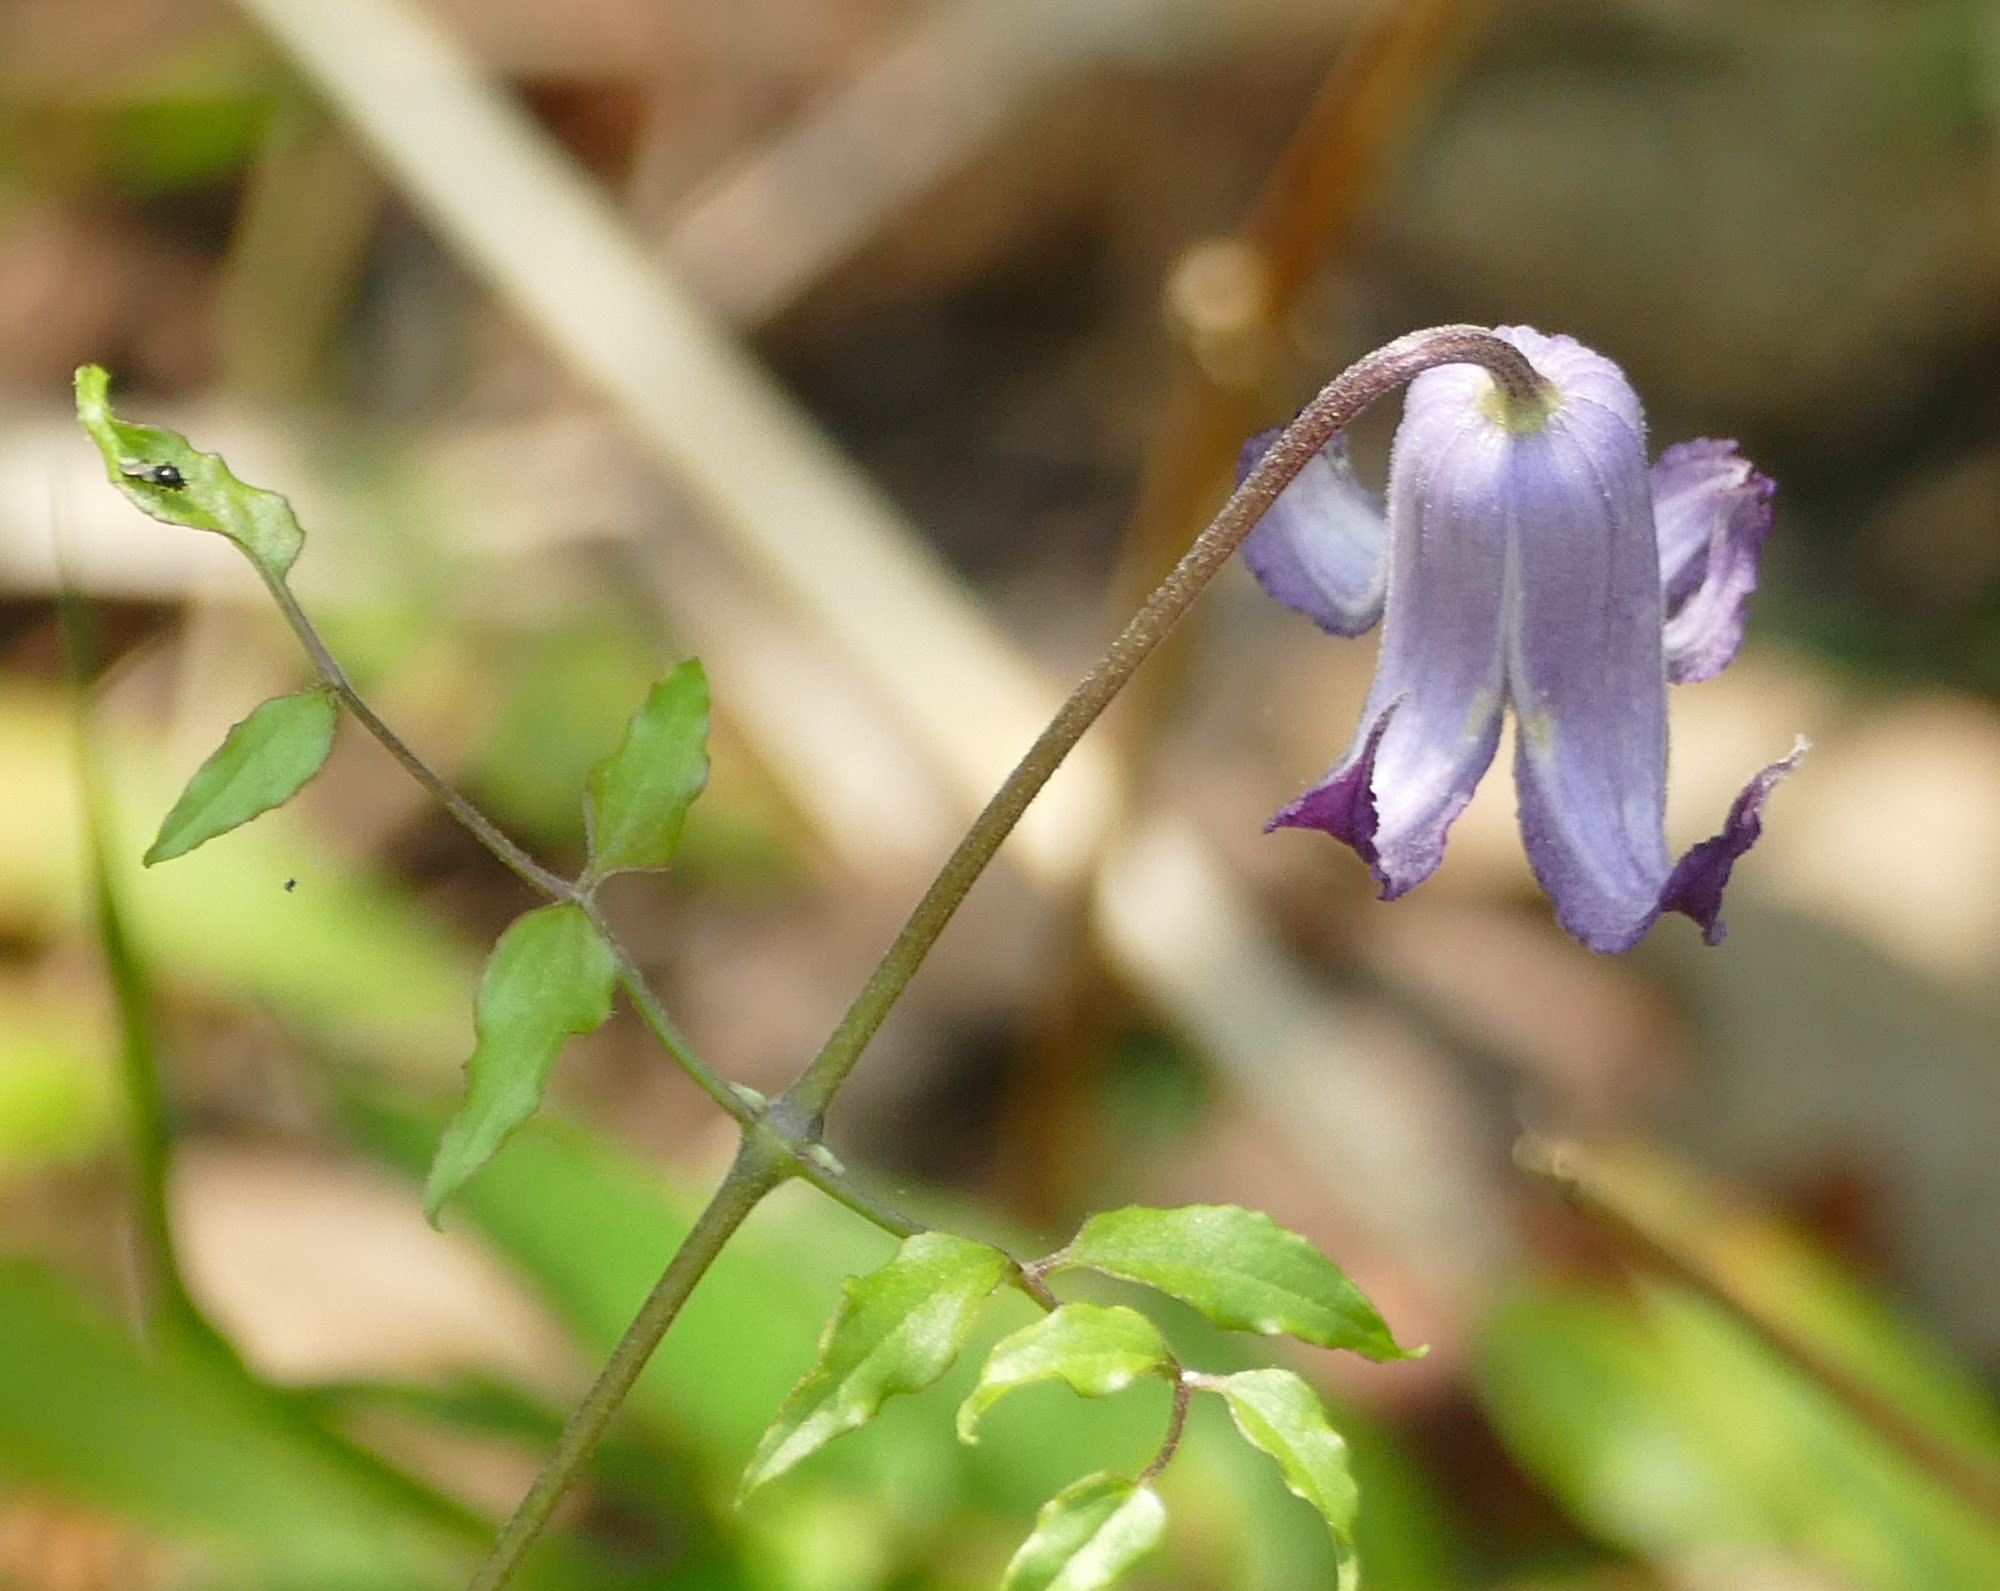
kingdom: Plantae
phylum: Tracheophyta
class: Magnoliopsida
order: Ranunculales
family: Ranunculaceae
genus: Clematis
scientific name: Clematis crispa
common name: Curly clematis
